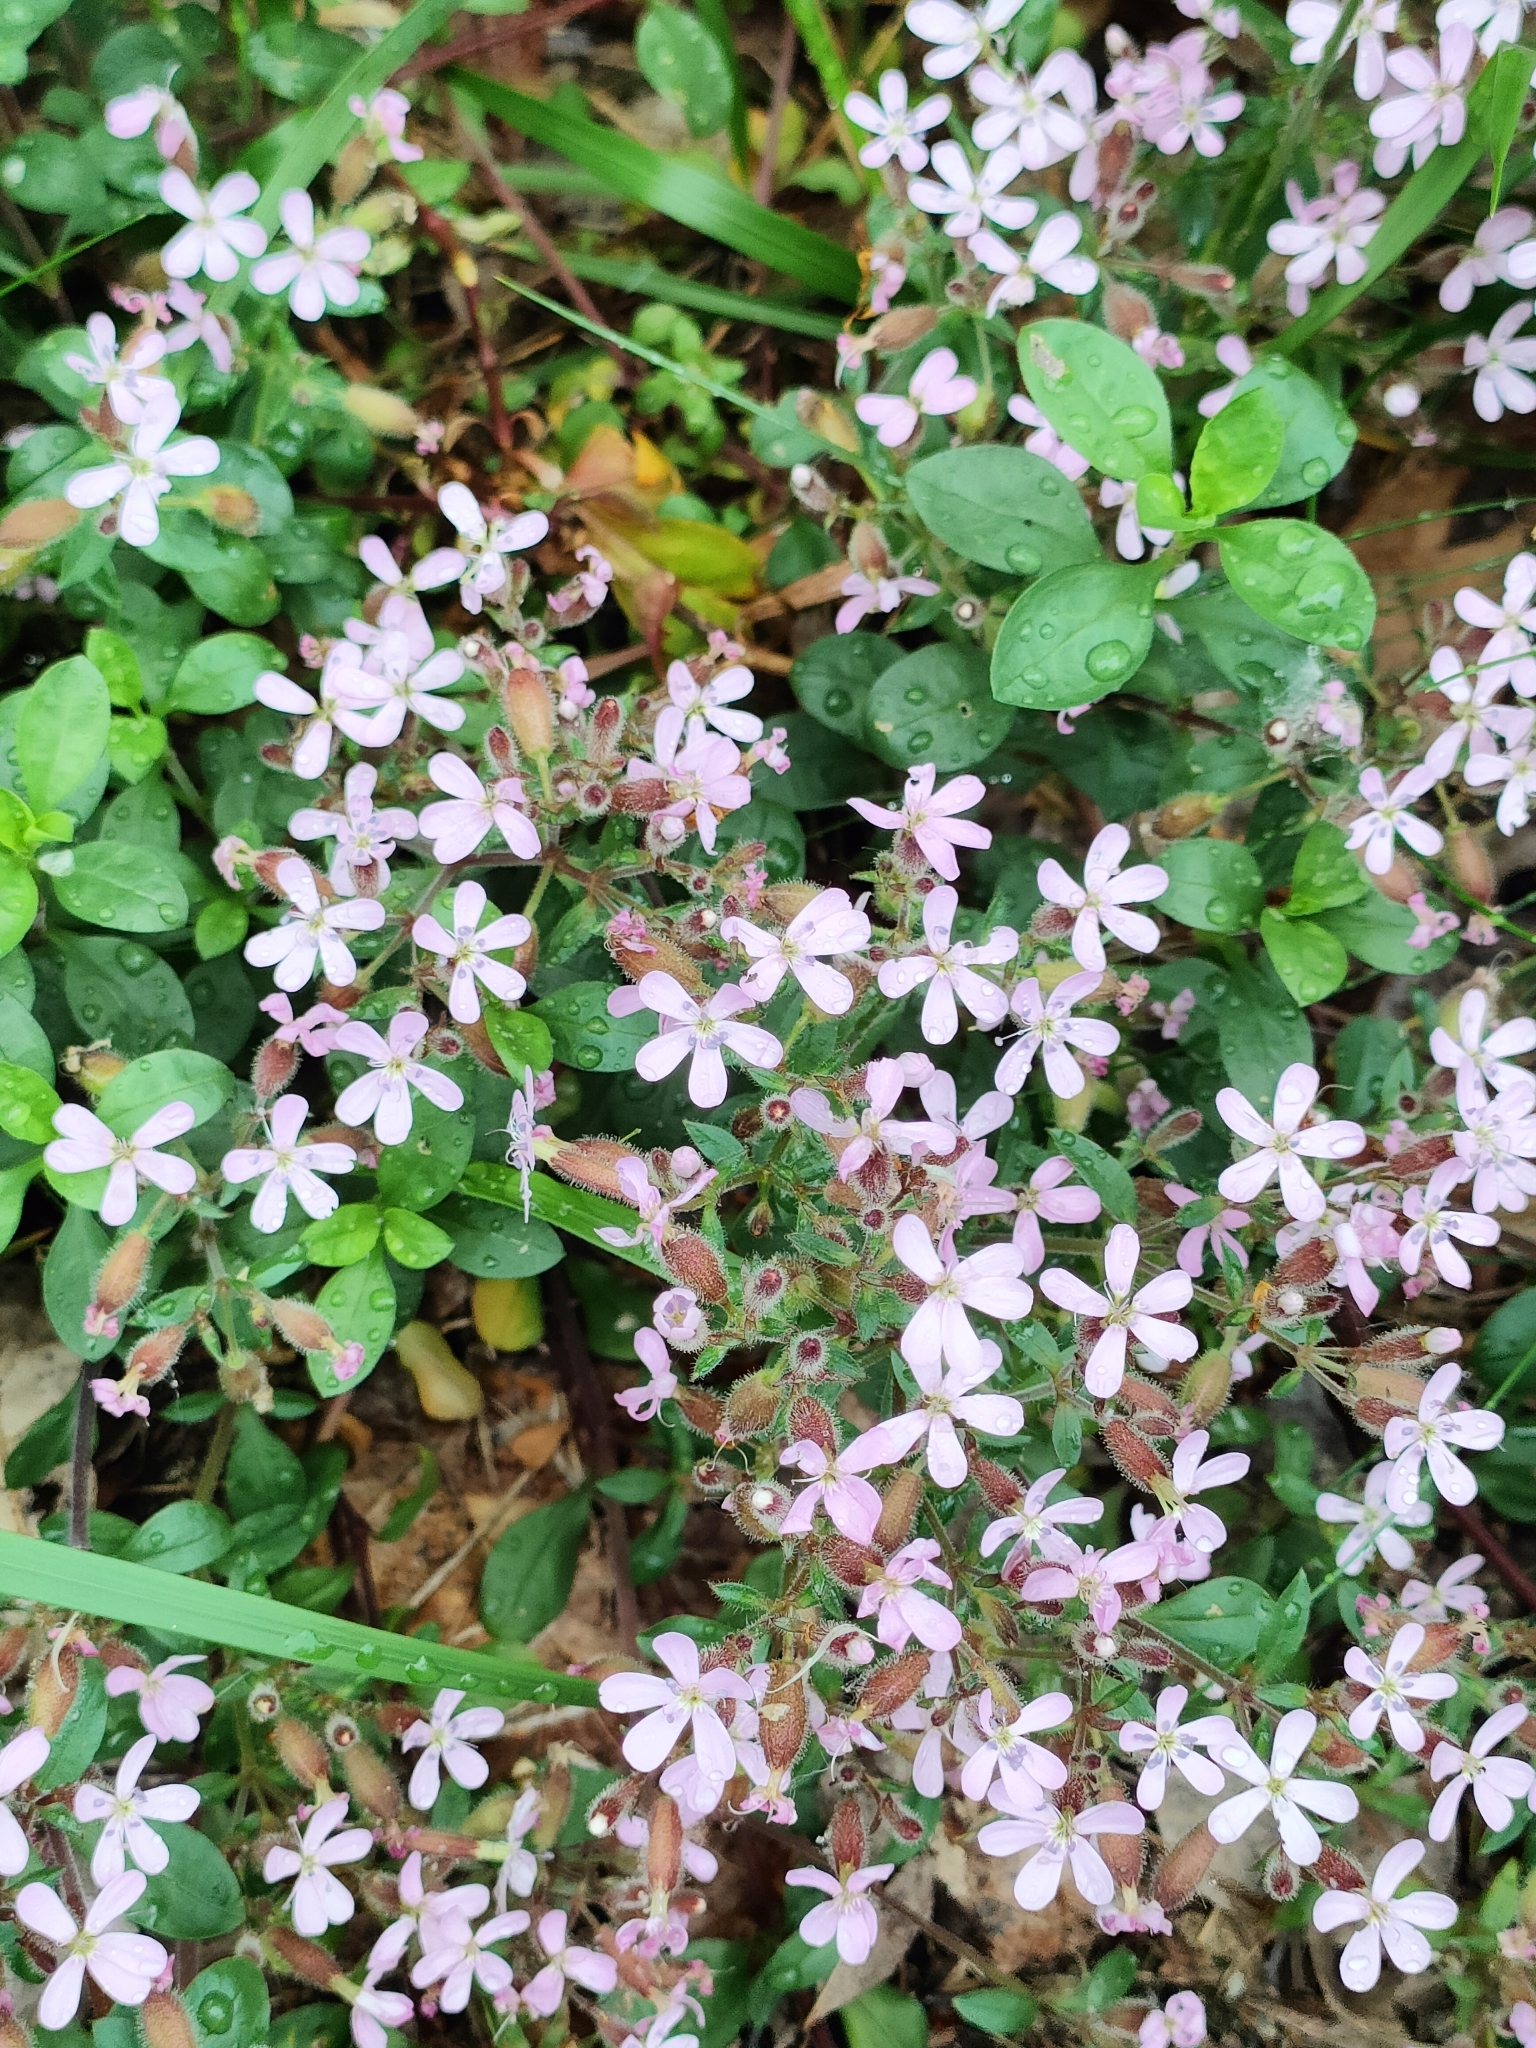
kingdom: Plantae
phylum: Tracheophyta
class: Magnoliopsida
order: Caryophyllales
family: Caryophyllaceae
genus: Saponaria
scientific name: Saponaria ocymoides
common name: Rock soapwort
